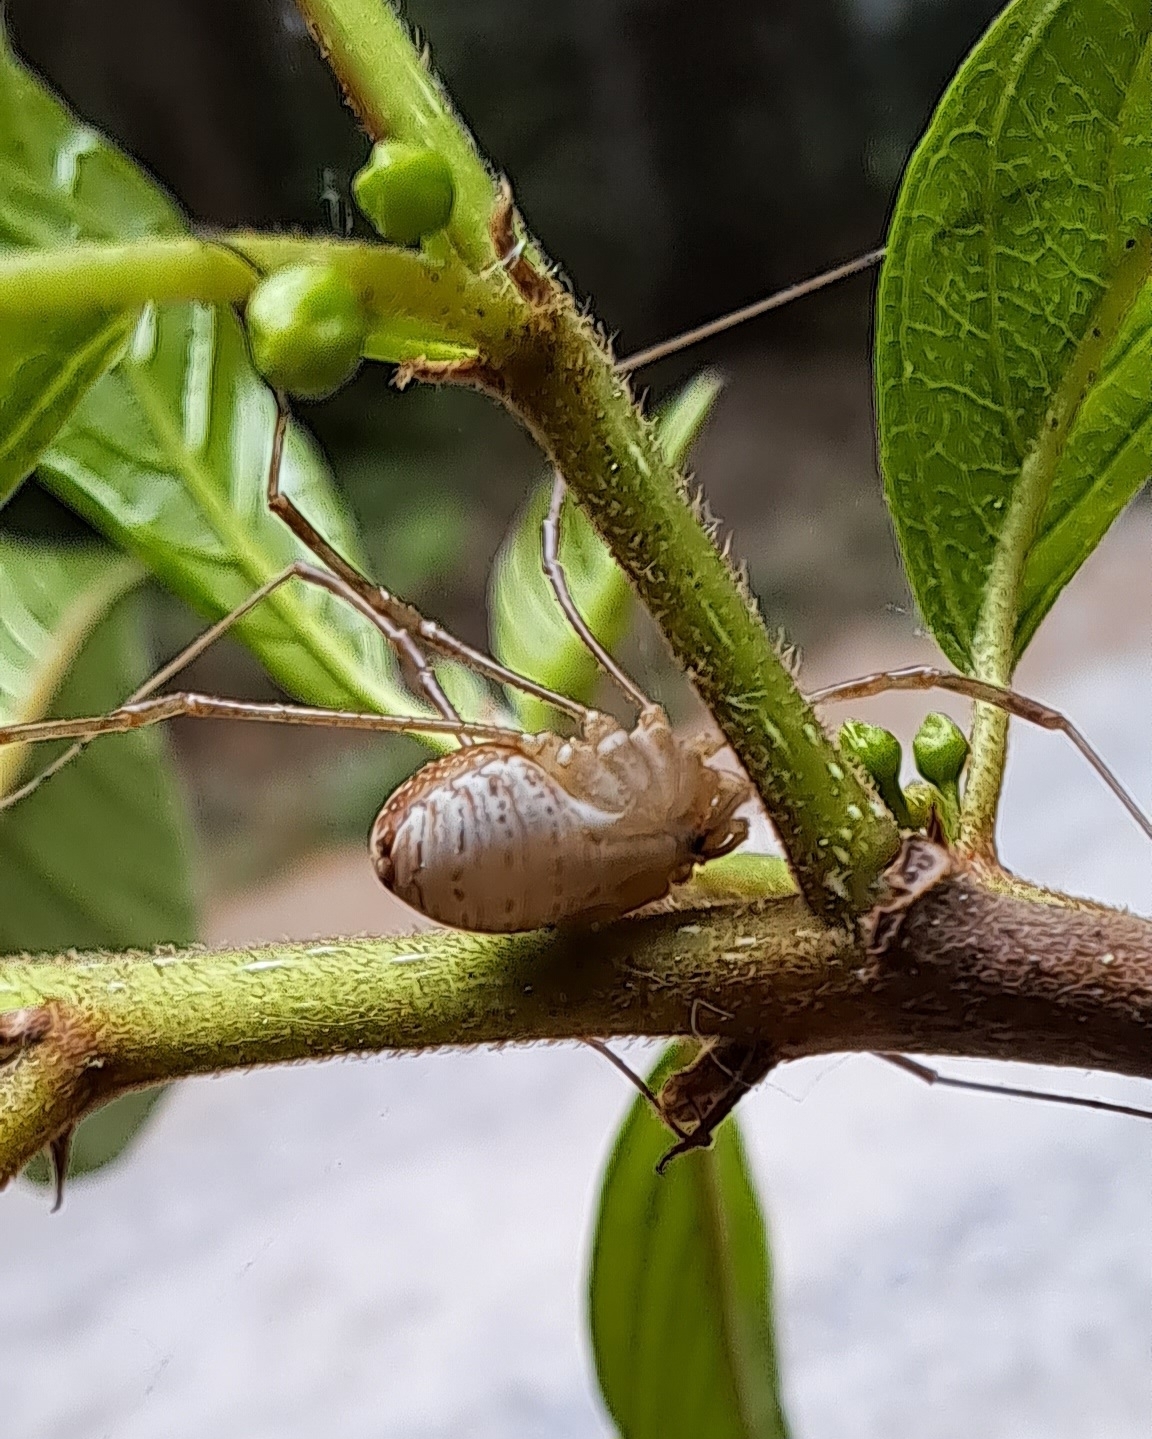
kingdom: Animalia
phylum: Arthropoda
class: Arachnida
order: Opiliones
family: Phalangiidae
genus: Rilaena
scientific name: Rilaena triangularis
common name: Spring harvestman
